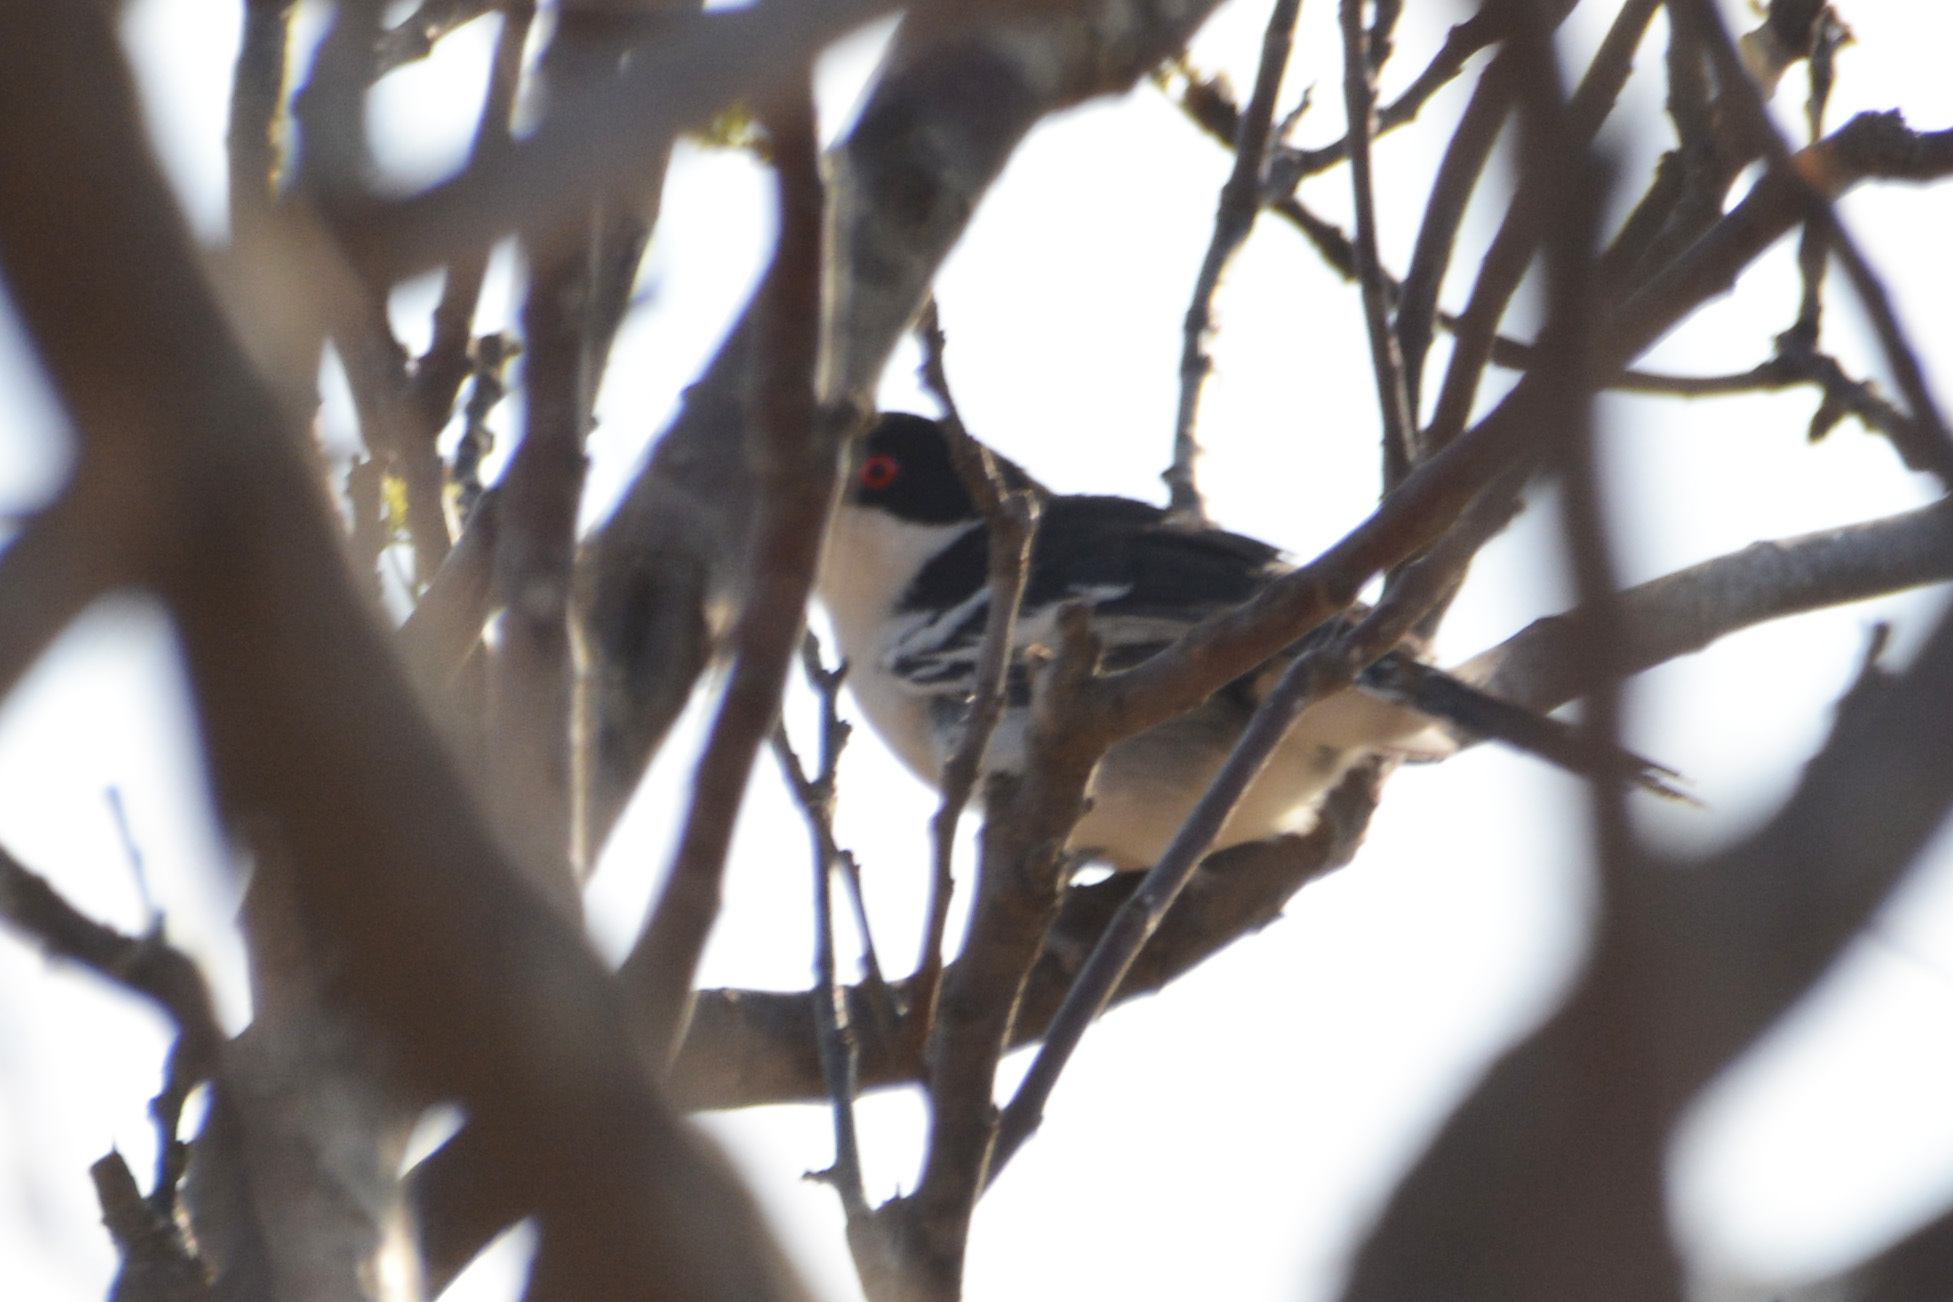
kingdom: Animalia
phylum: Chordata
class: Aves
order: Passeriformes
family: Thamnophilidae
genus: Taraba
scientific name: Taraba major
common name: Great antshrike
